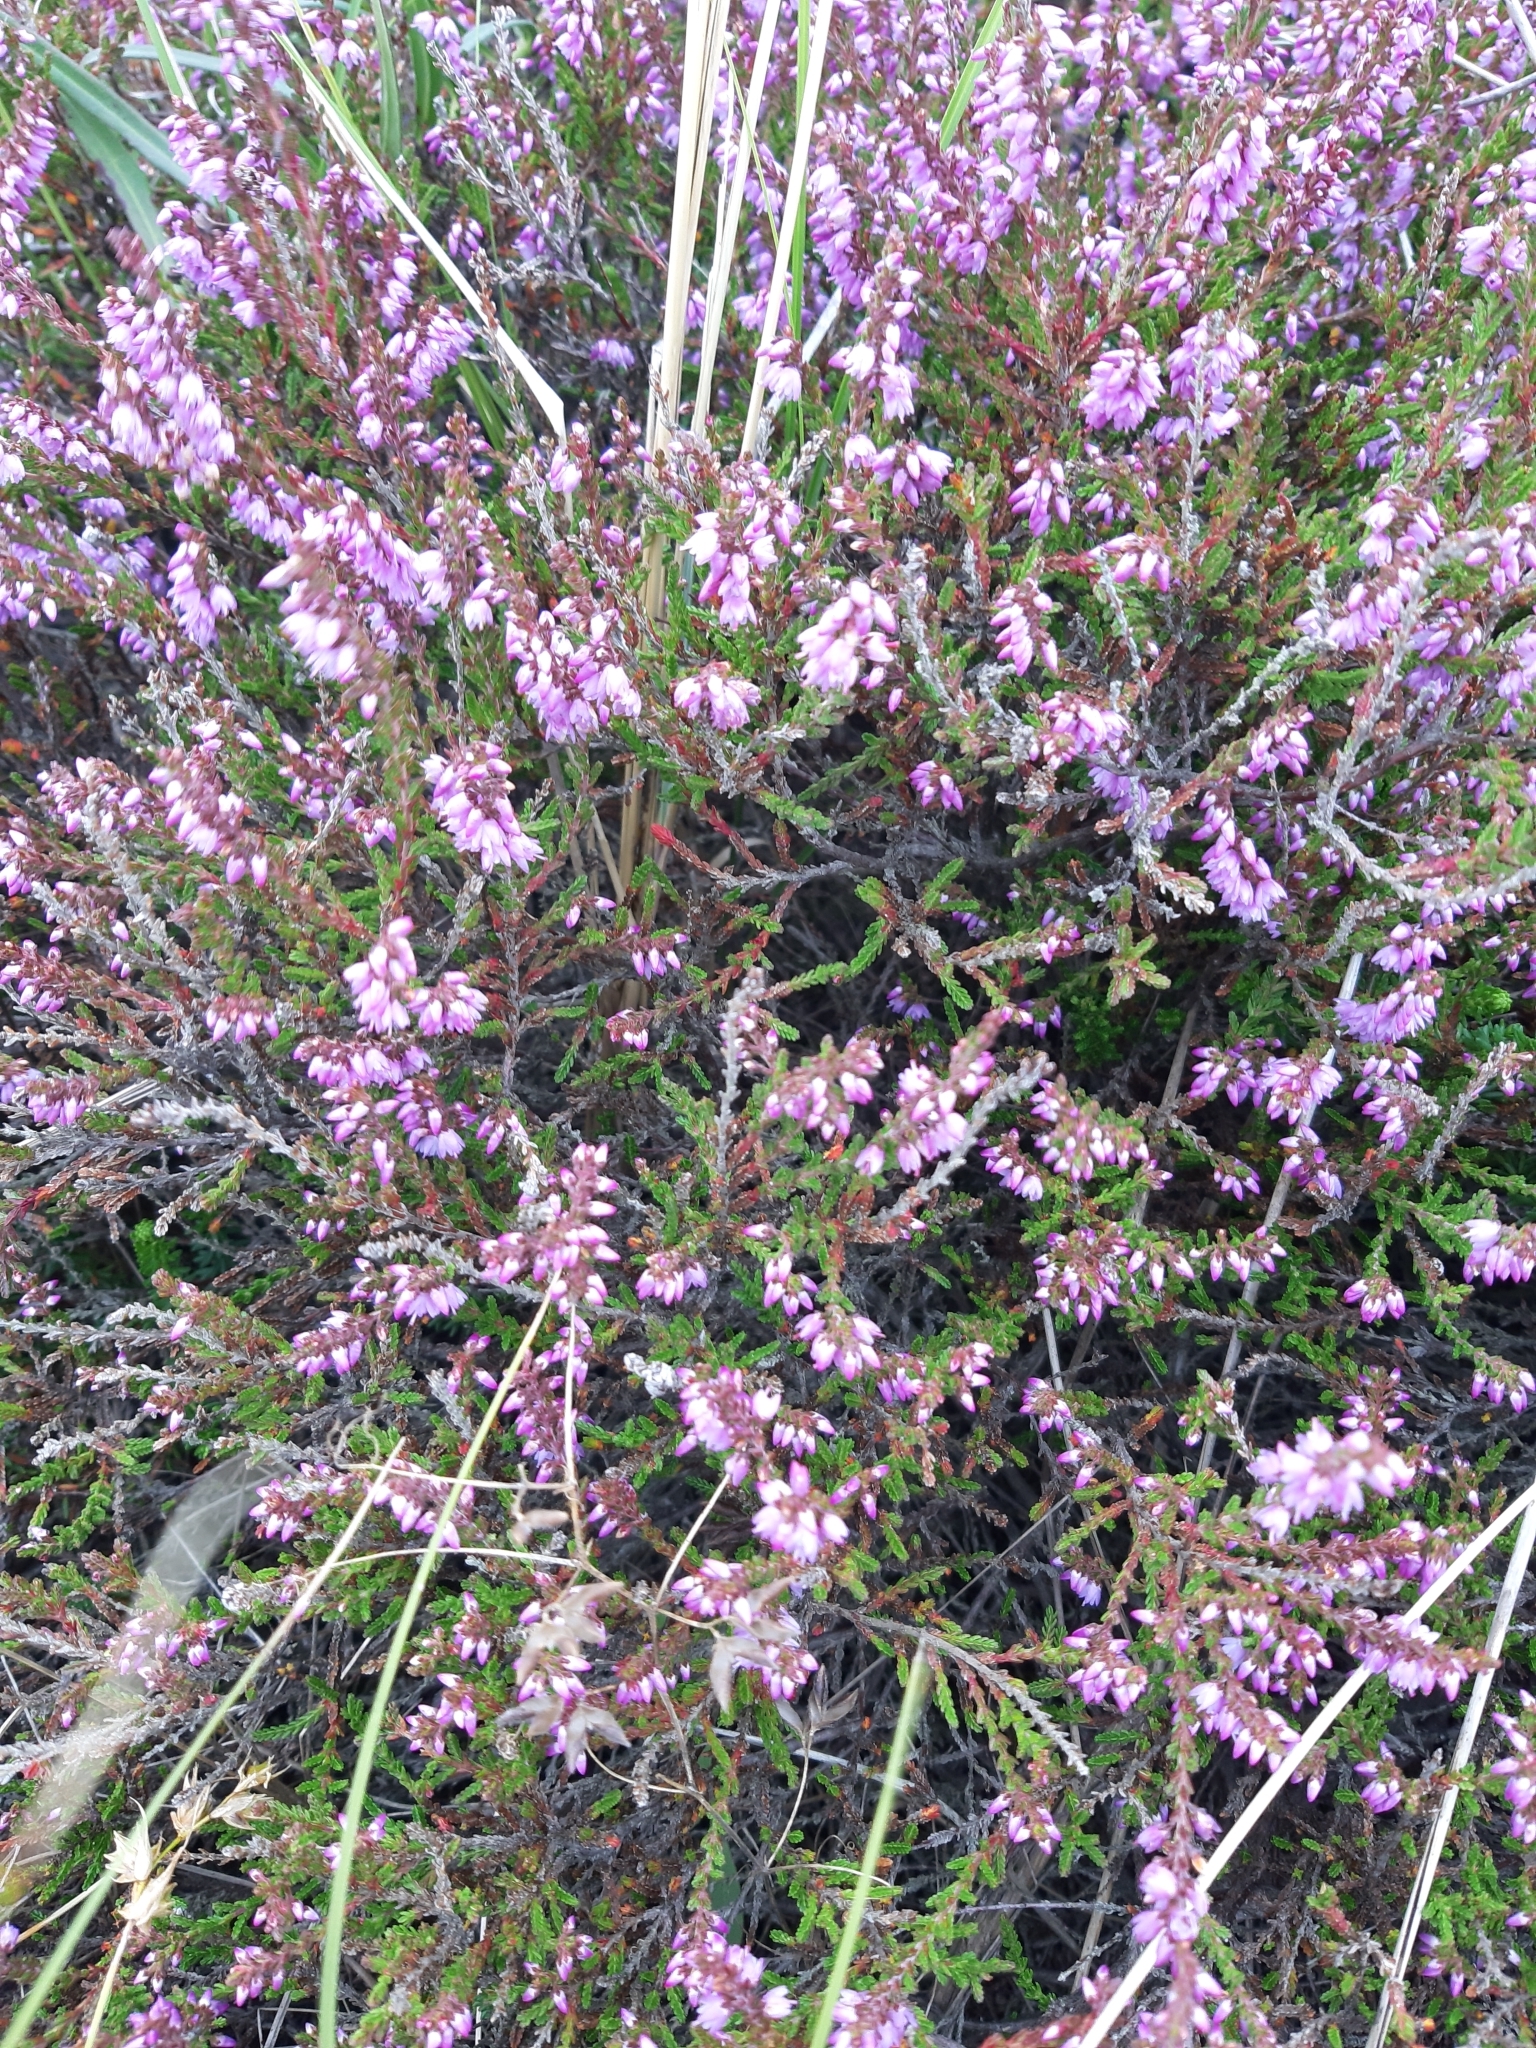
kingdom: Plantae
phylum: Tracheophyta
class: Magnoliopsida
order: Ericales
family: Ericaceae
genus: Calluna
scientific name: Calluna vulgaris
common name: Heather
